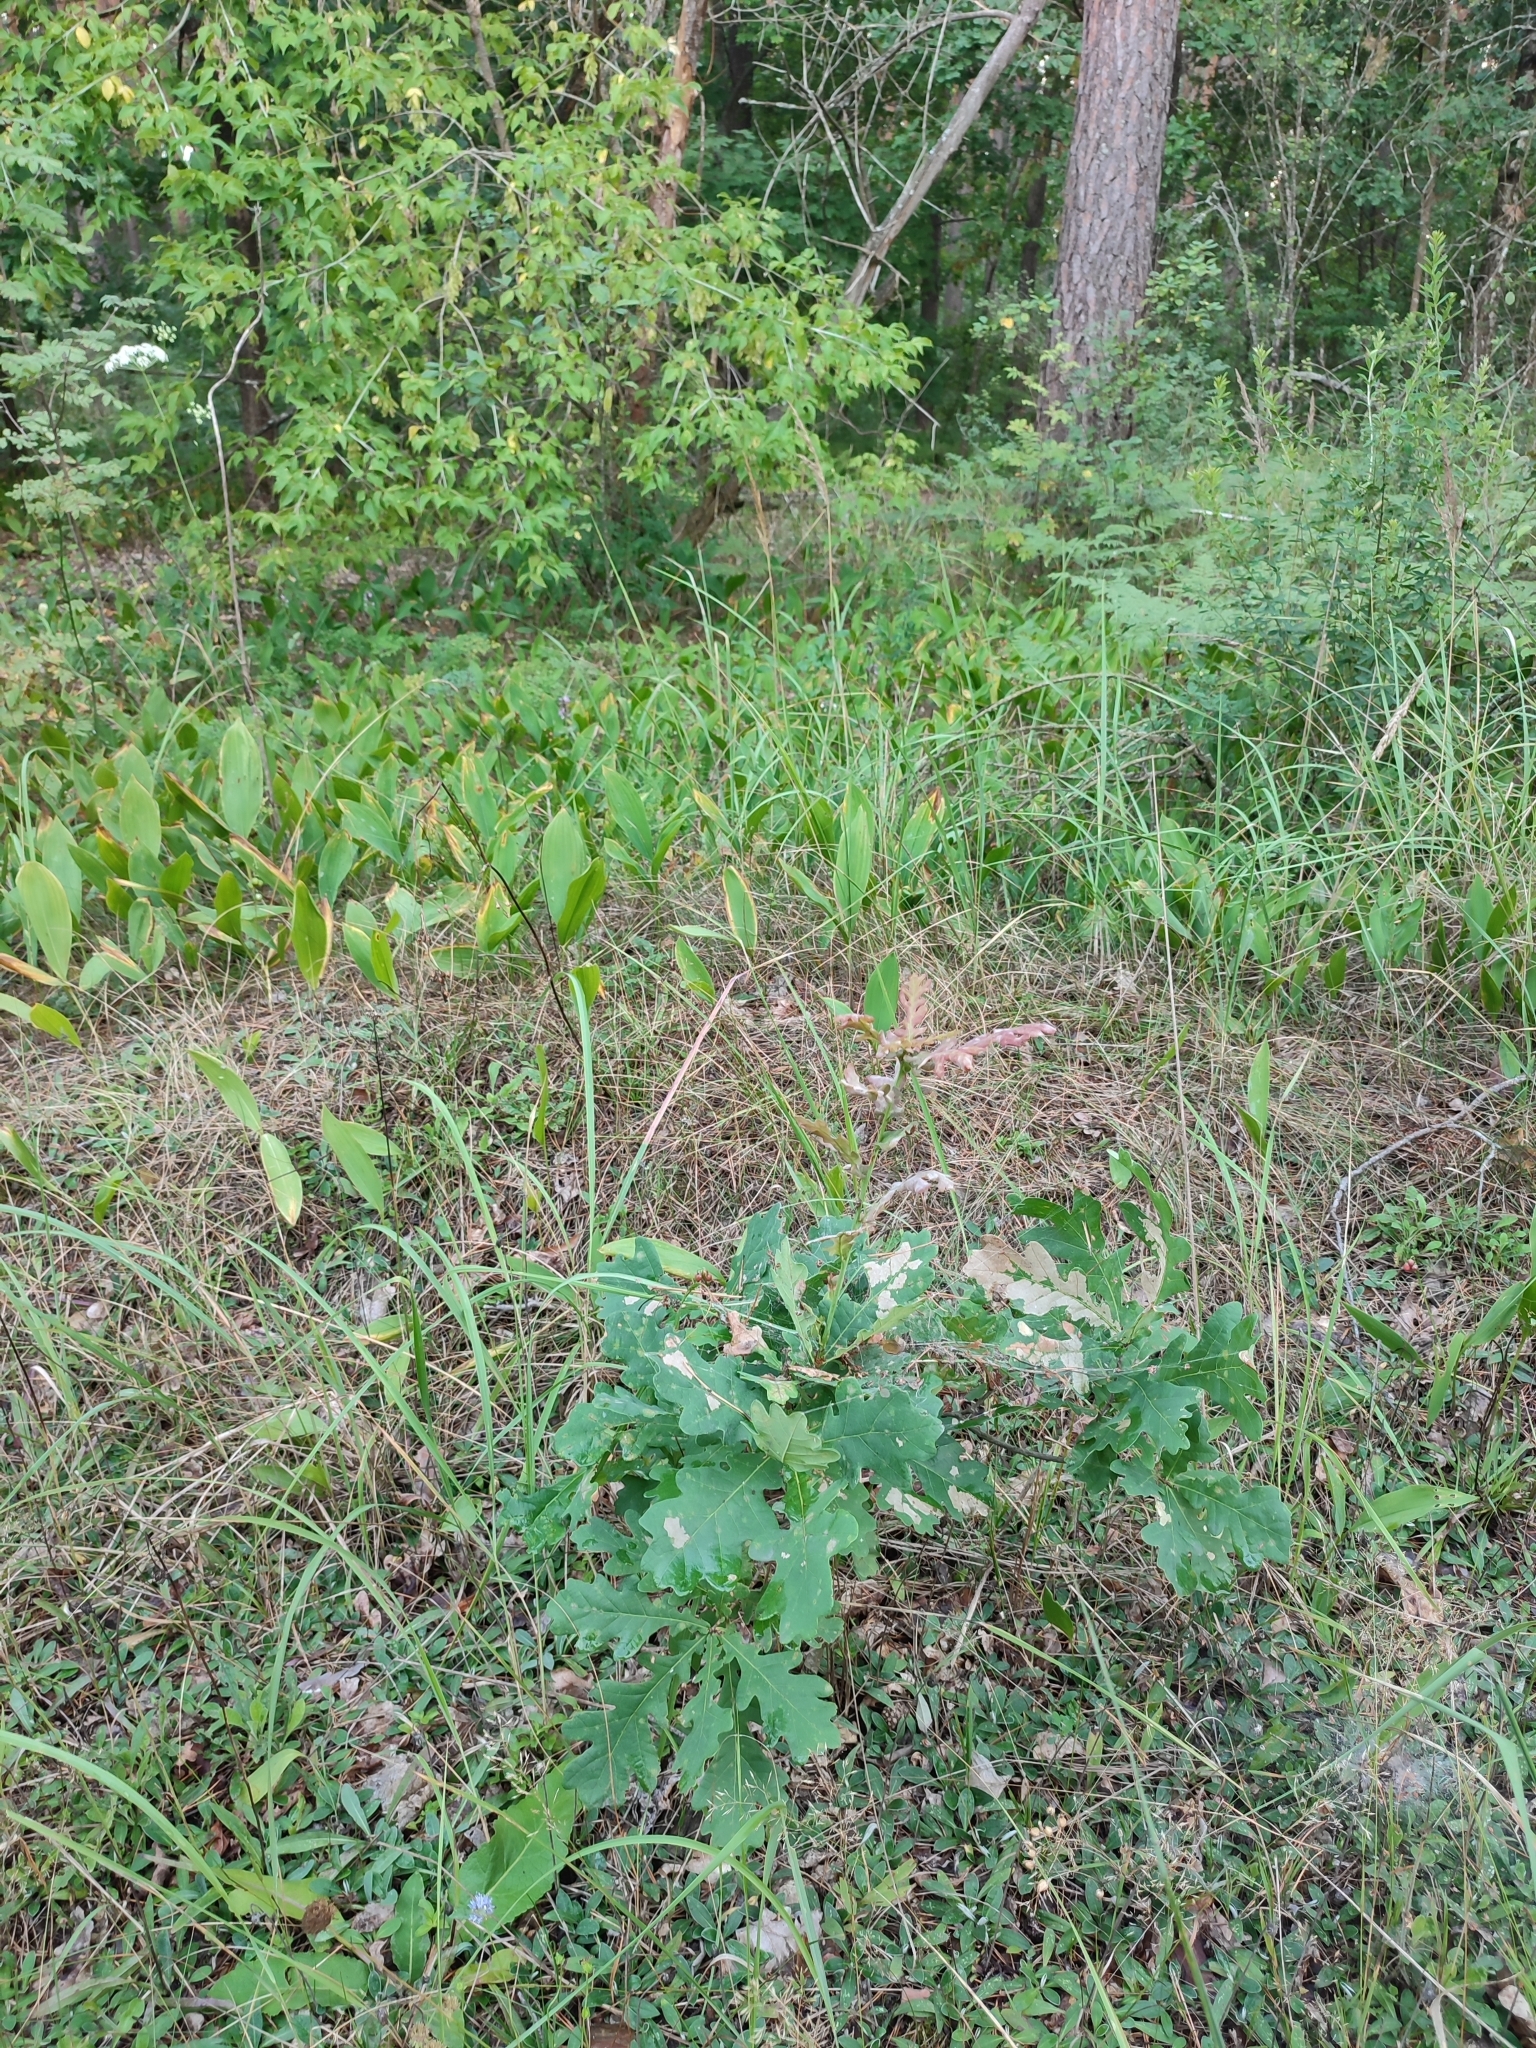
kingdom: Plantae
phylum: Tracheophyta
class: Magnoliopsida
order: Fagales
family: Fagaceae
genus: Quercus
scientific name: Quercus robur
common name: Pedunculate oak
